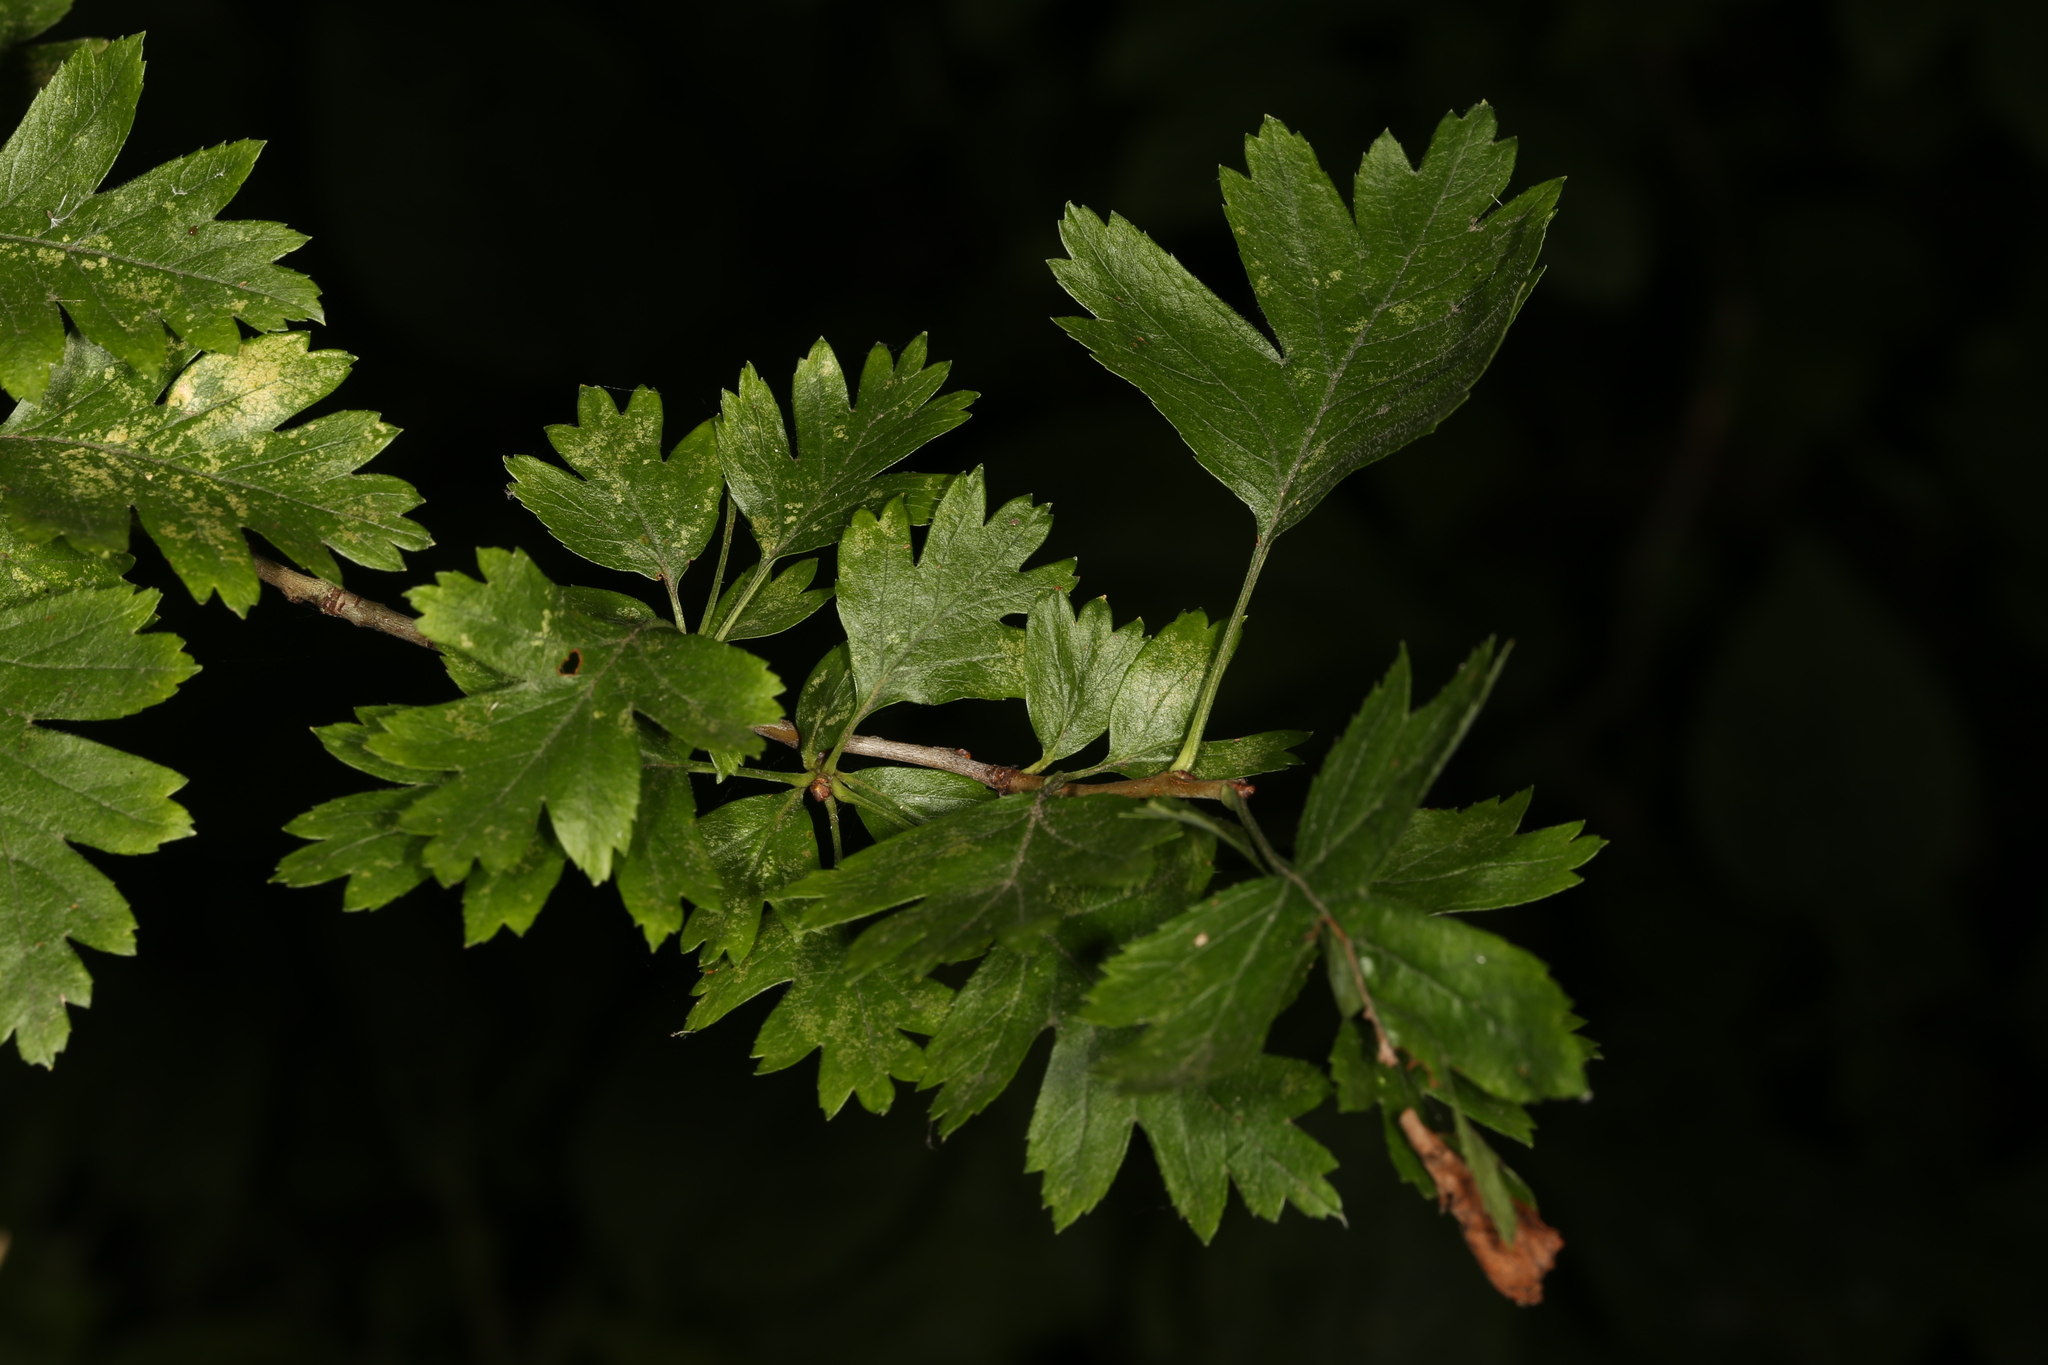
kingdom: Plantae
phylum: Tracheophyta
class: Magnoliopsida
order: Rosales
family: Rosaceae
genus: Crataegus
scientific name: Crataegus monogyna
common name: Hawthorn
